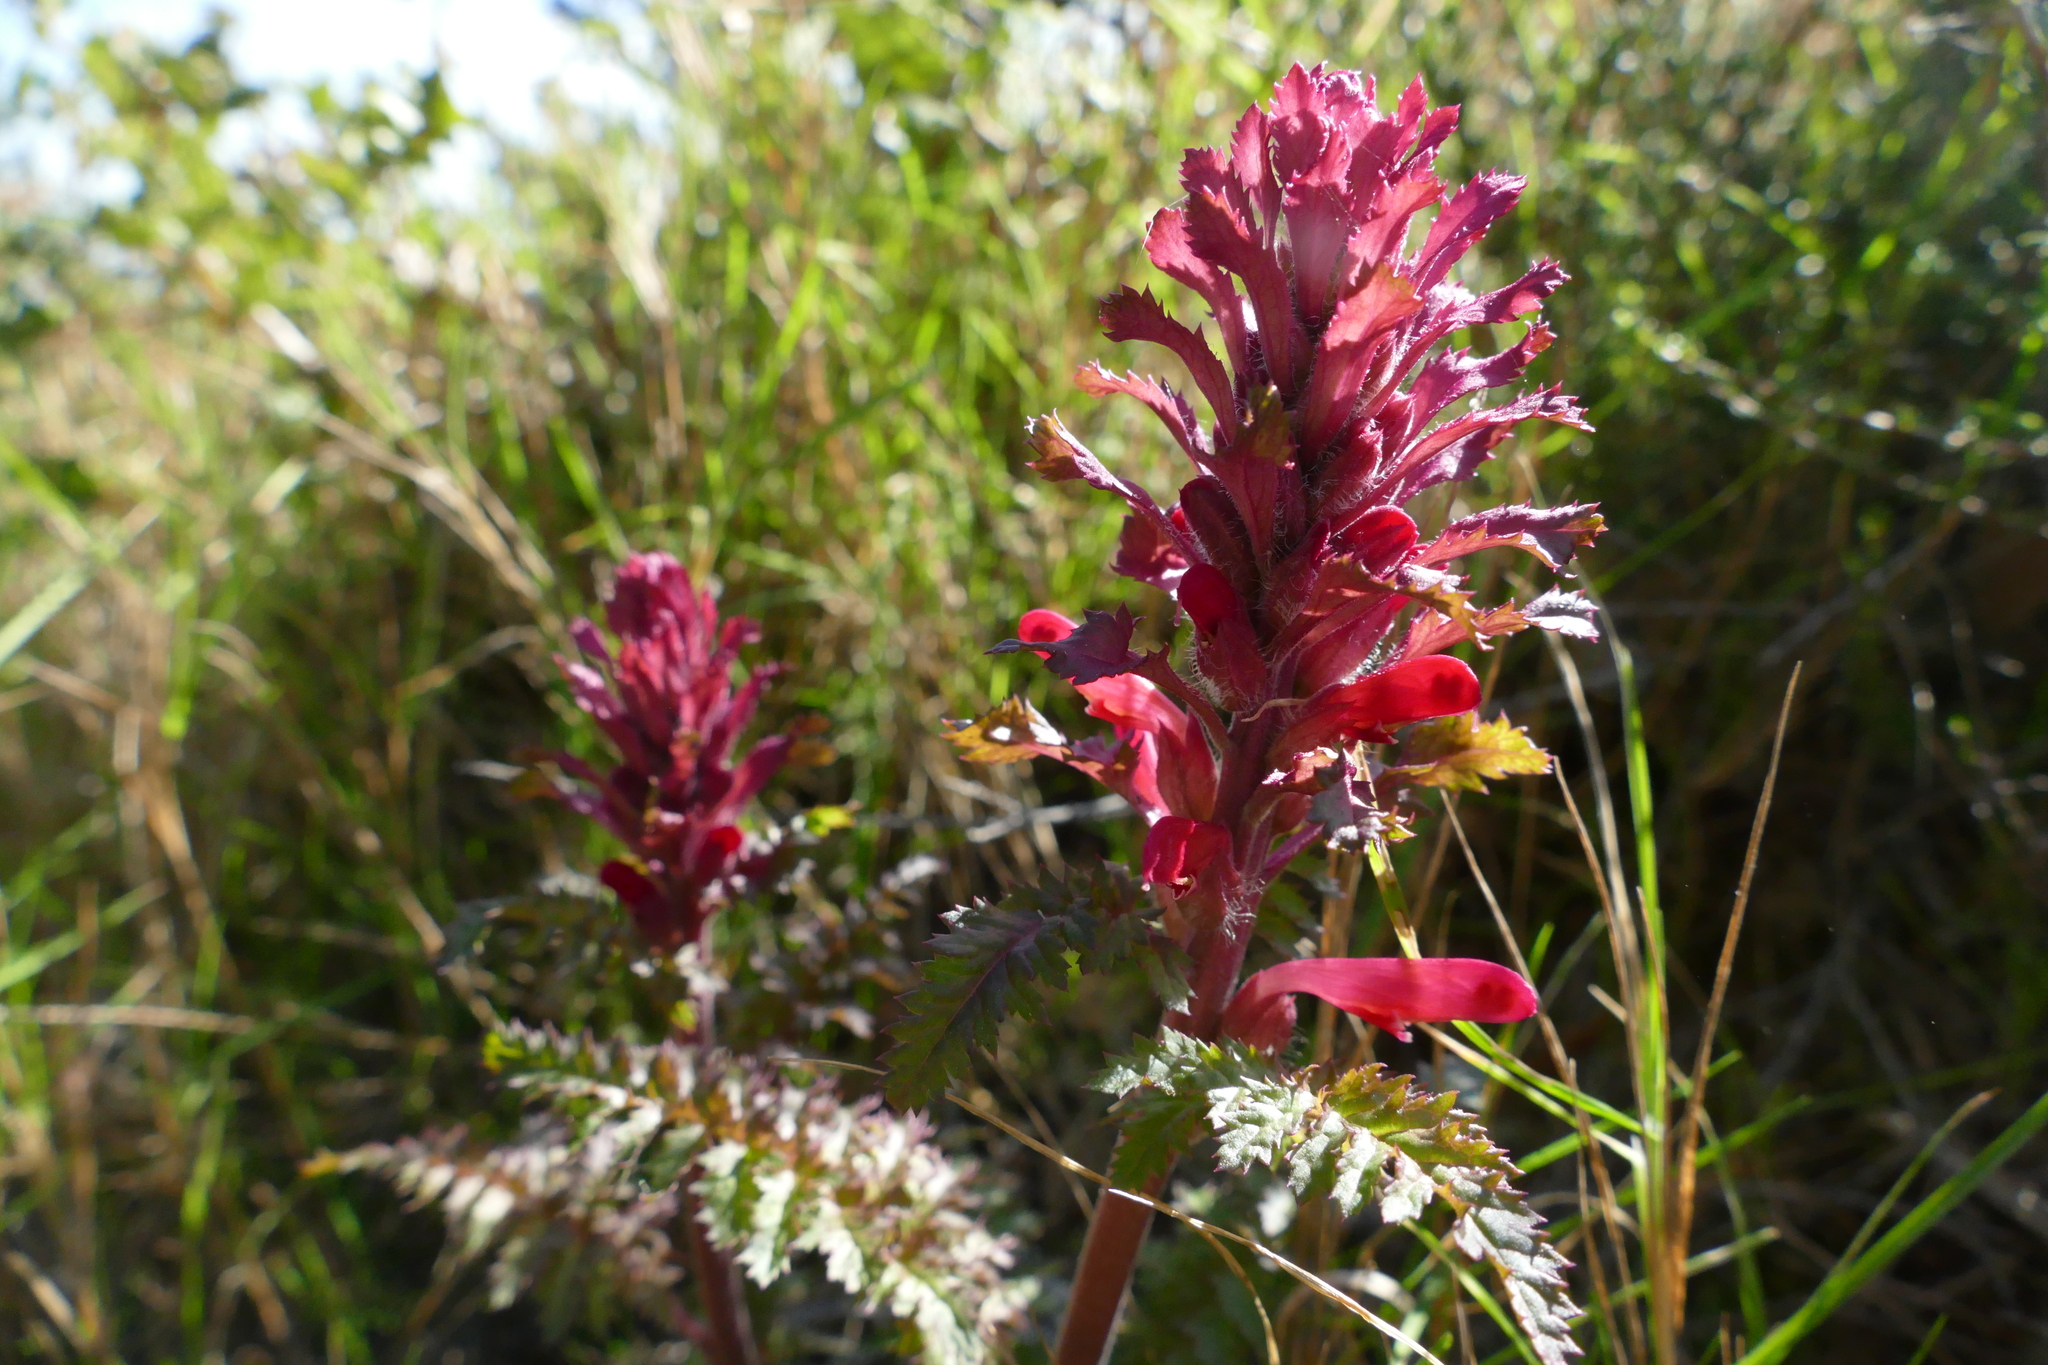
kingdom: Plantae
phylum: Tracheophyta
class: Magnoliopsida
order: Lamiales
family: Orobanchaceae
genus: Pedicularis
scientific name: Pedicularis densiflora
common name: Indian warrior
